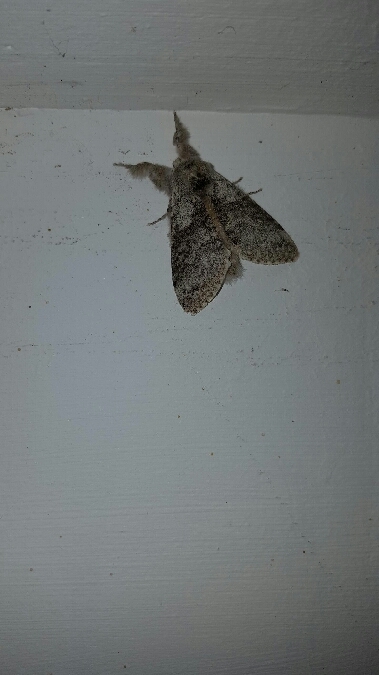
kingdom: Animalia
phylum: Arthropoda
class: Insecta
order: Lepidoptera
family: Erebidae
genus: Calliteara
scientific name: Calliteara pudibunda
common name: Pale tussock
